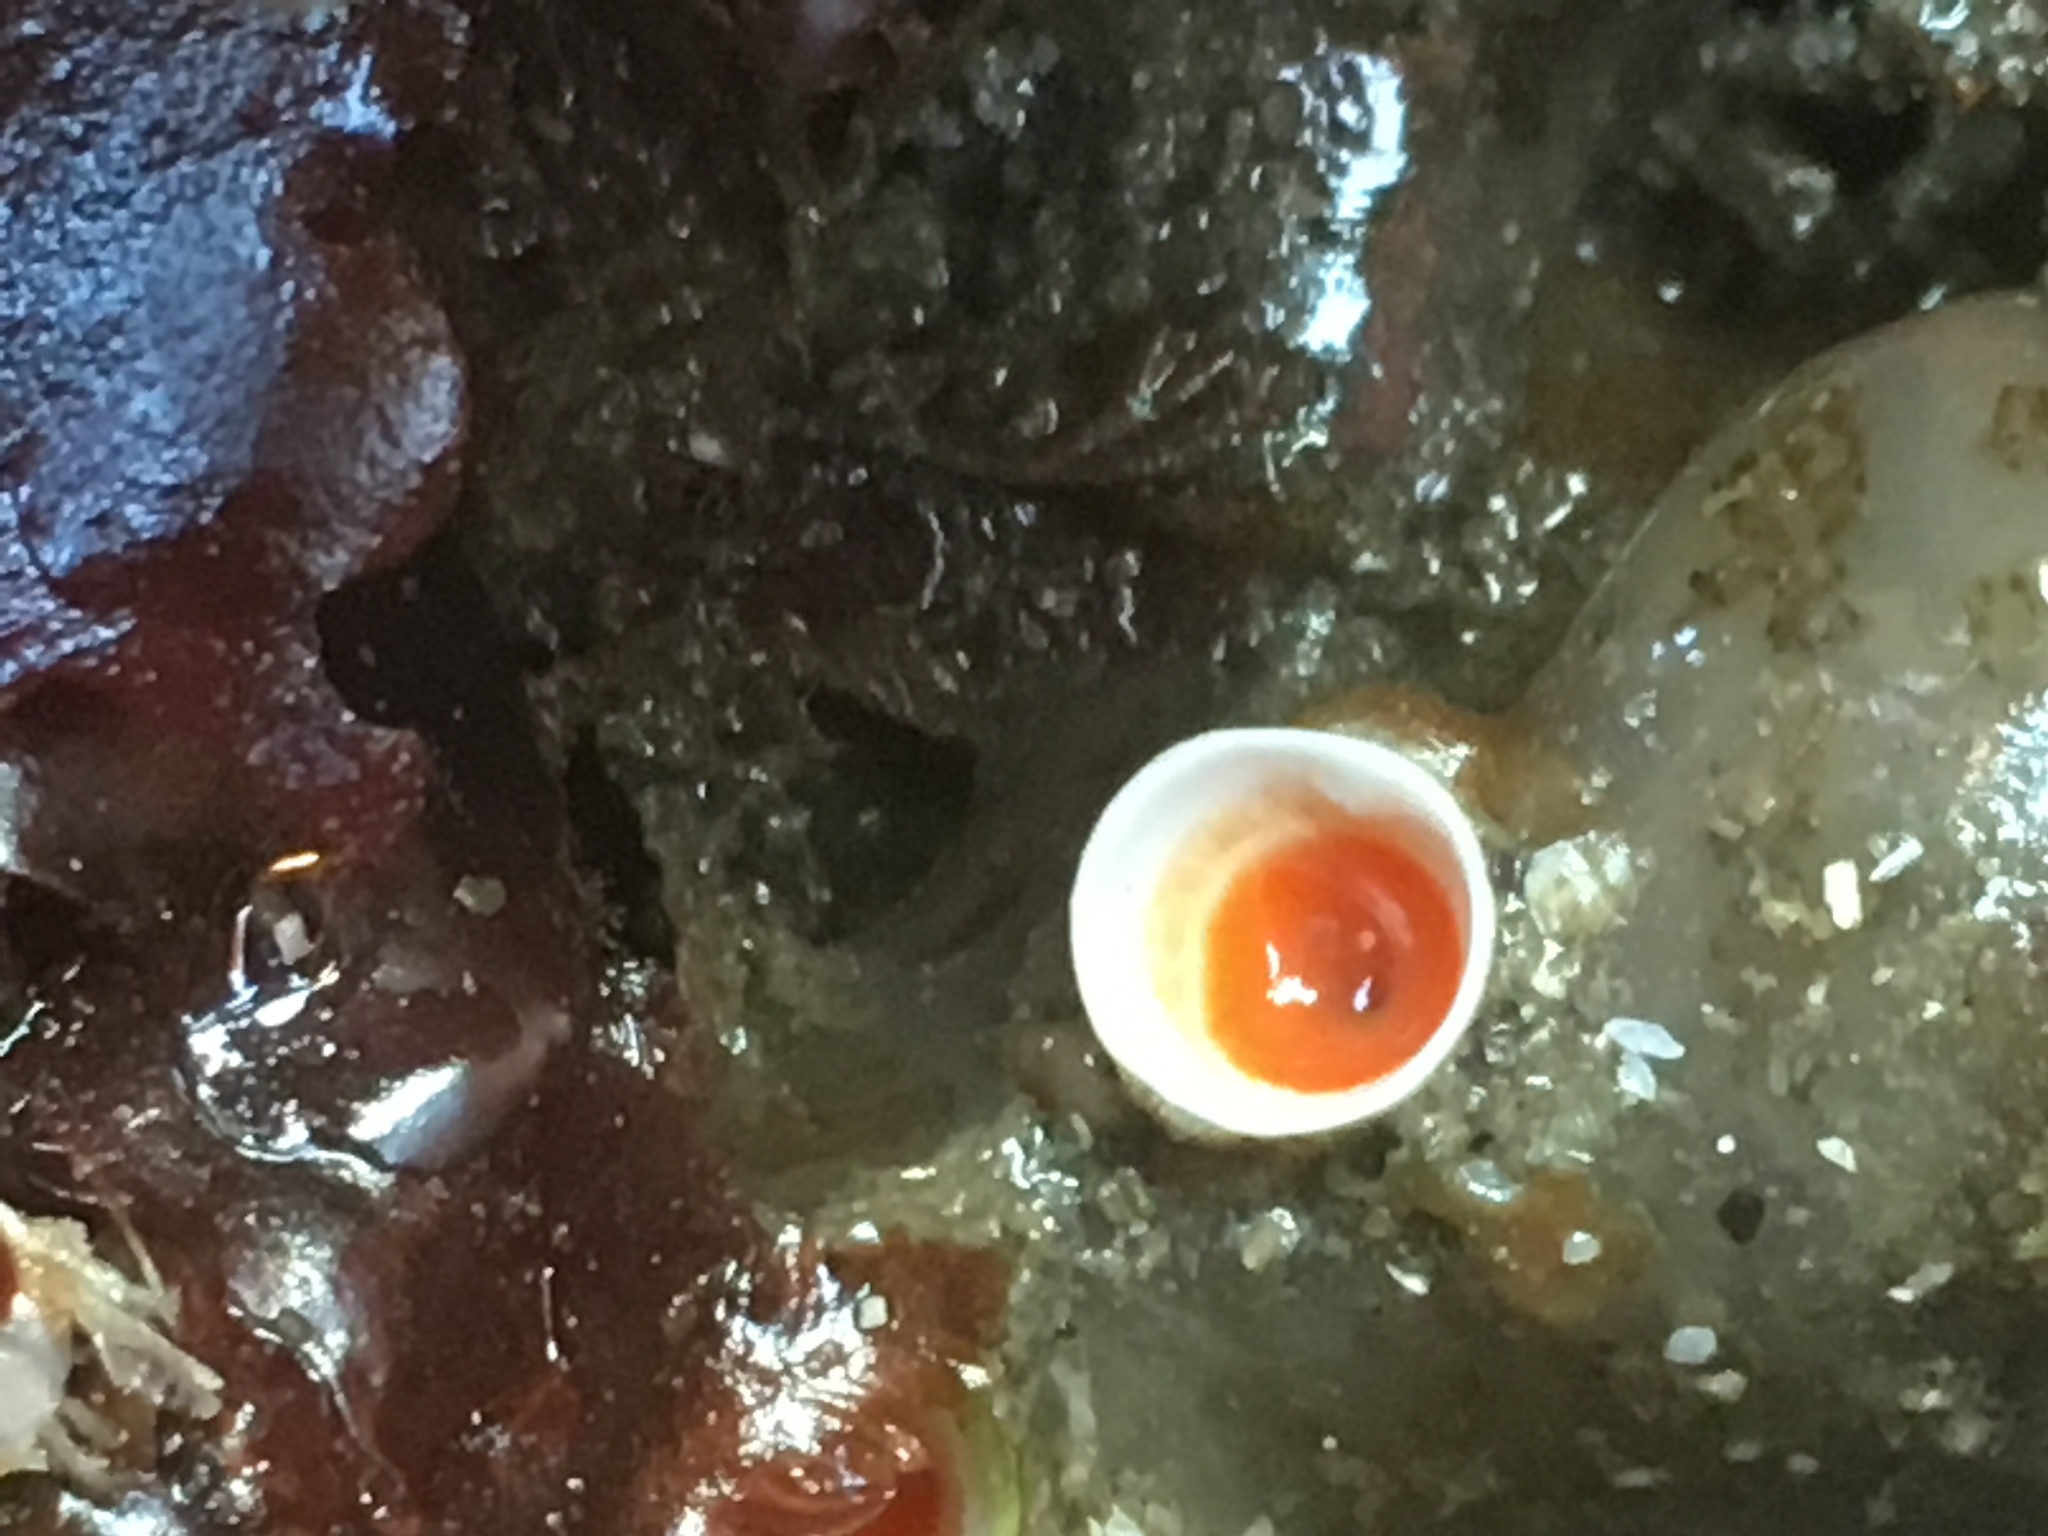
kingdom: Animalia
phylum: Annelida
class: Polychaeta
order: Sabellida
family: Serpulidae
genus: Serpula
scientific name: Serpula columbiana
